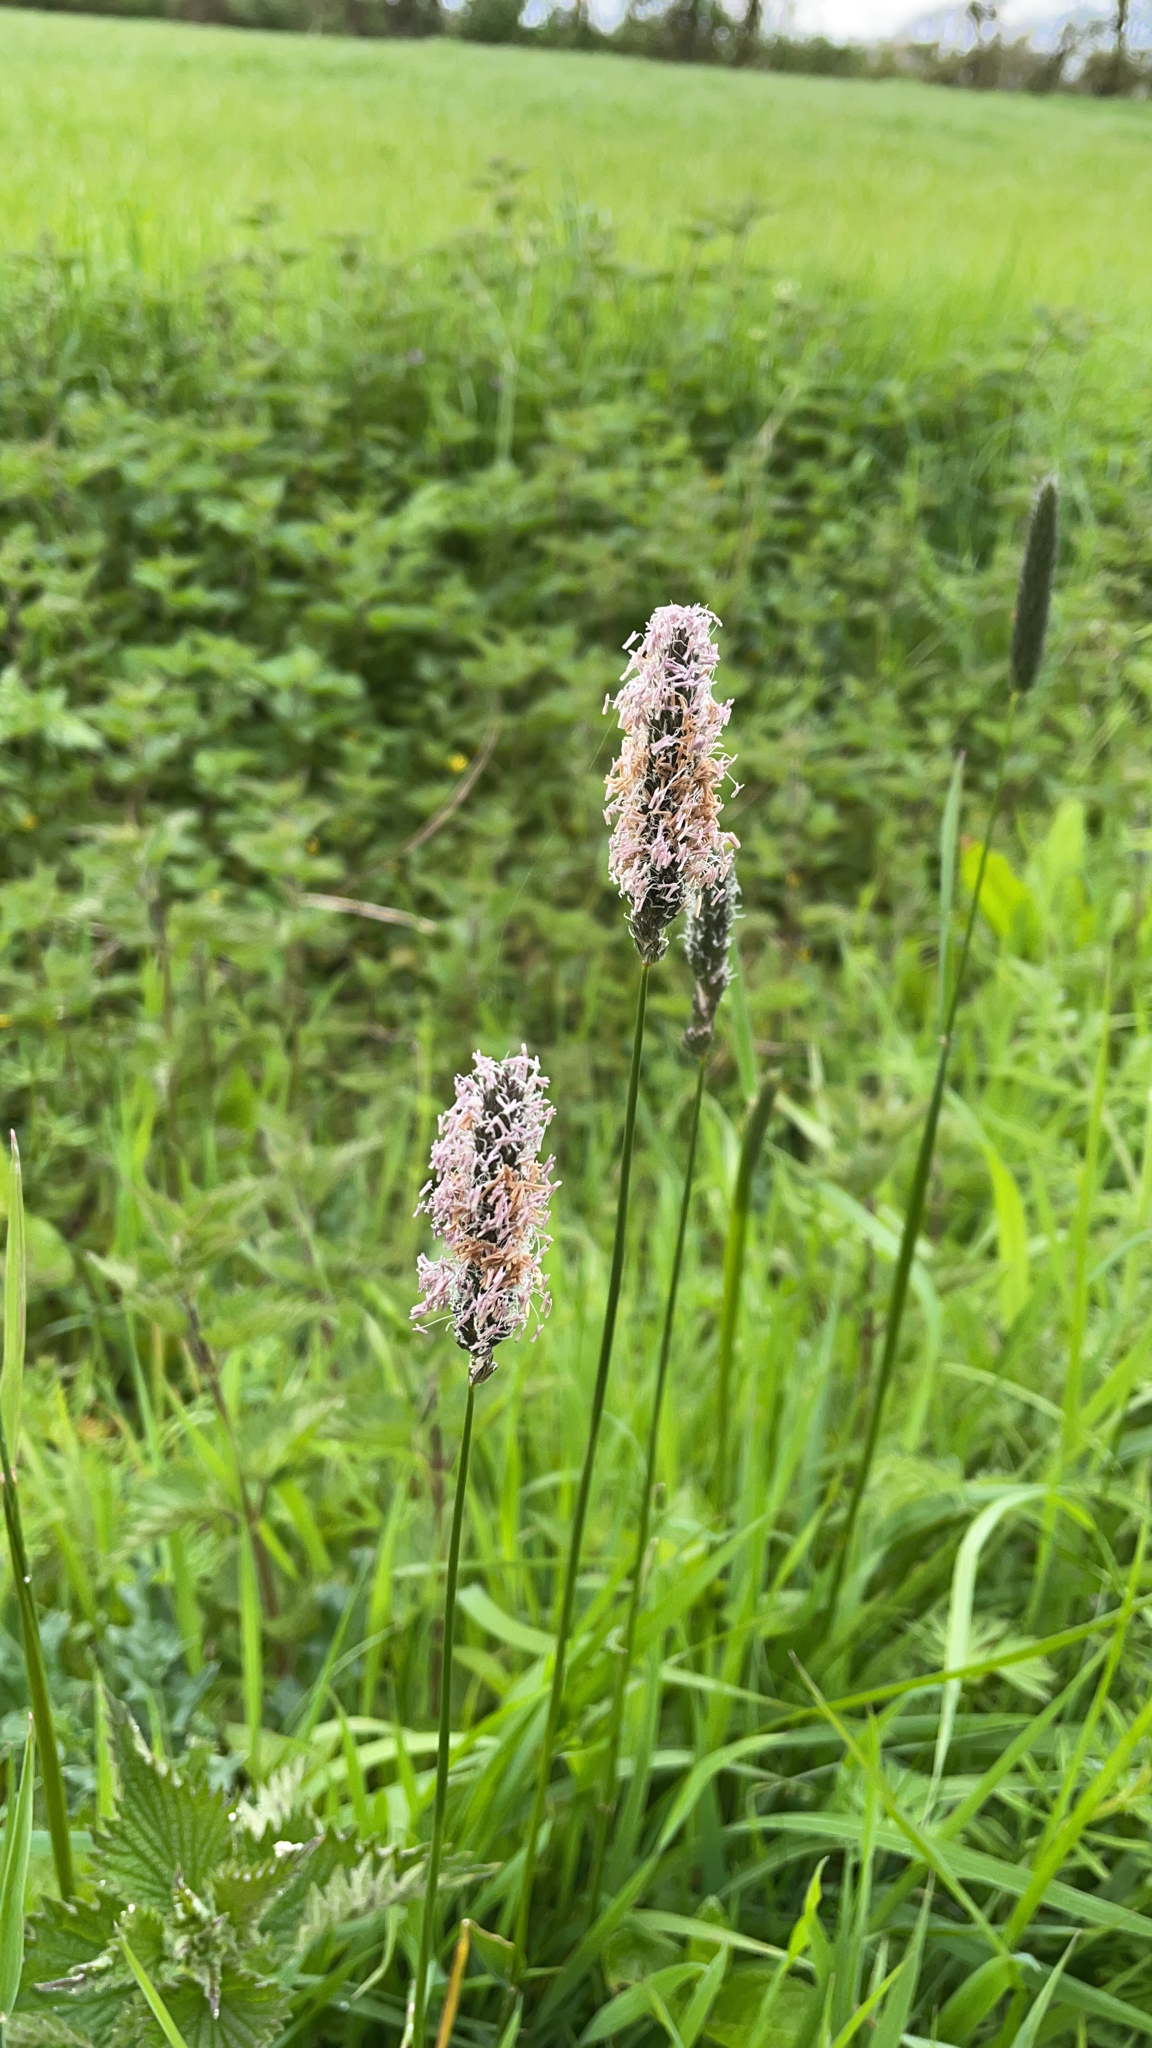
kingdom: Plantae
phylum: Tracheophyta
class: Liliopsida
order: Poales
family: Poaceae
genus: Alopecurus
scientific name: Alopecurus pratensis
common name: Meadow foxtail
